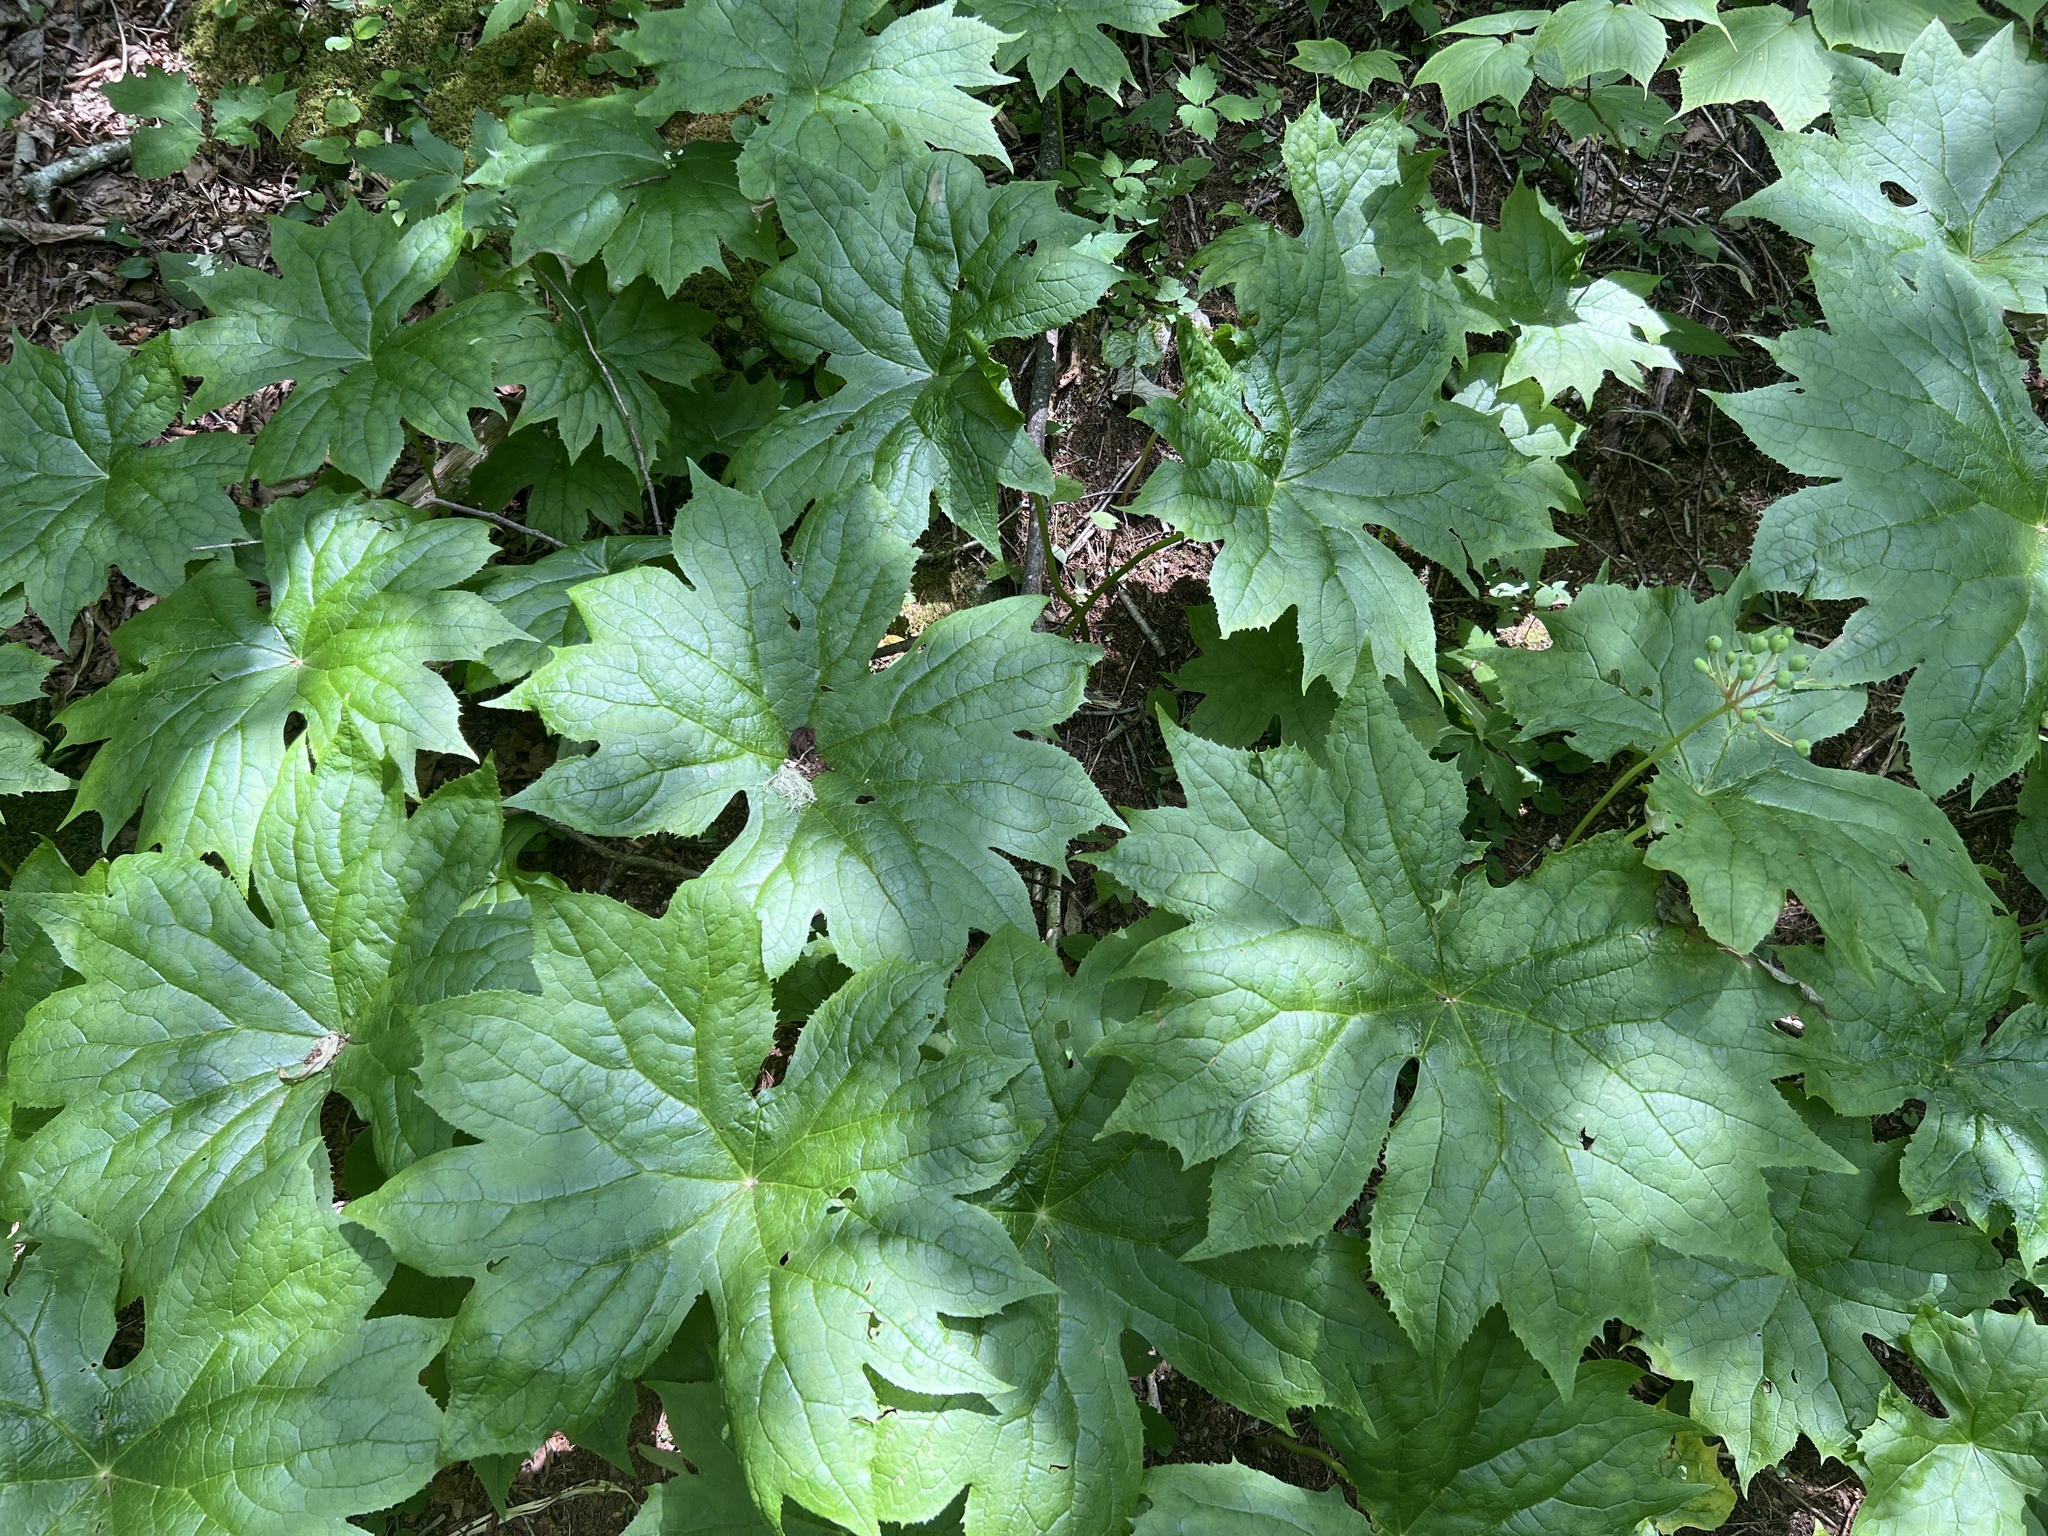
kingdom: Plantae
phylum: Tracheophyta
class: Magnoliopsida
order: Ranunculales
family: Berberidaceae
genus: Diphylleia
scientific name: Diphylleia cymosa
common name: Umbrella-leaf
